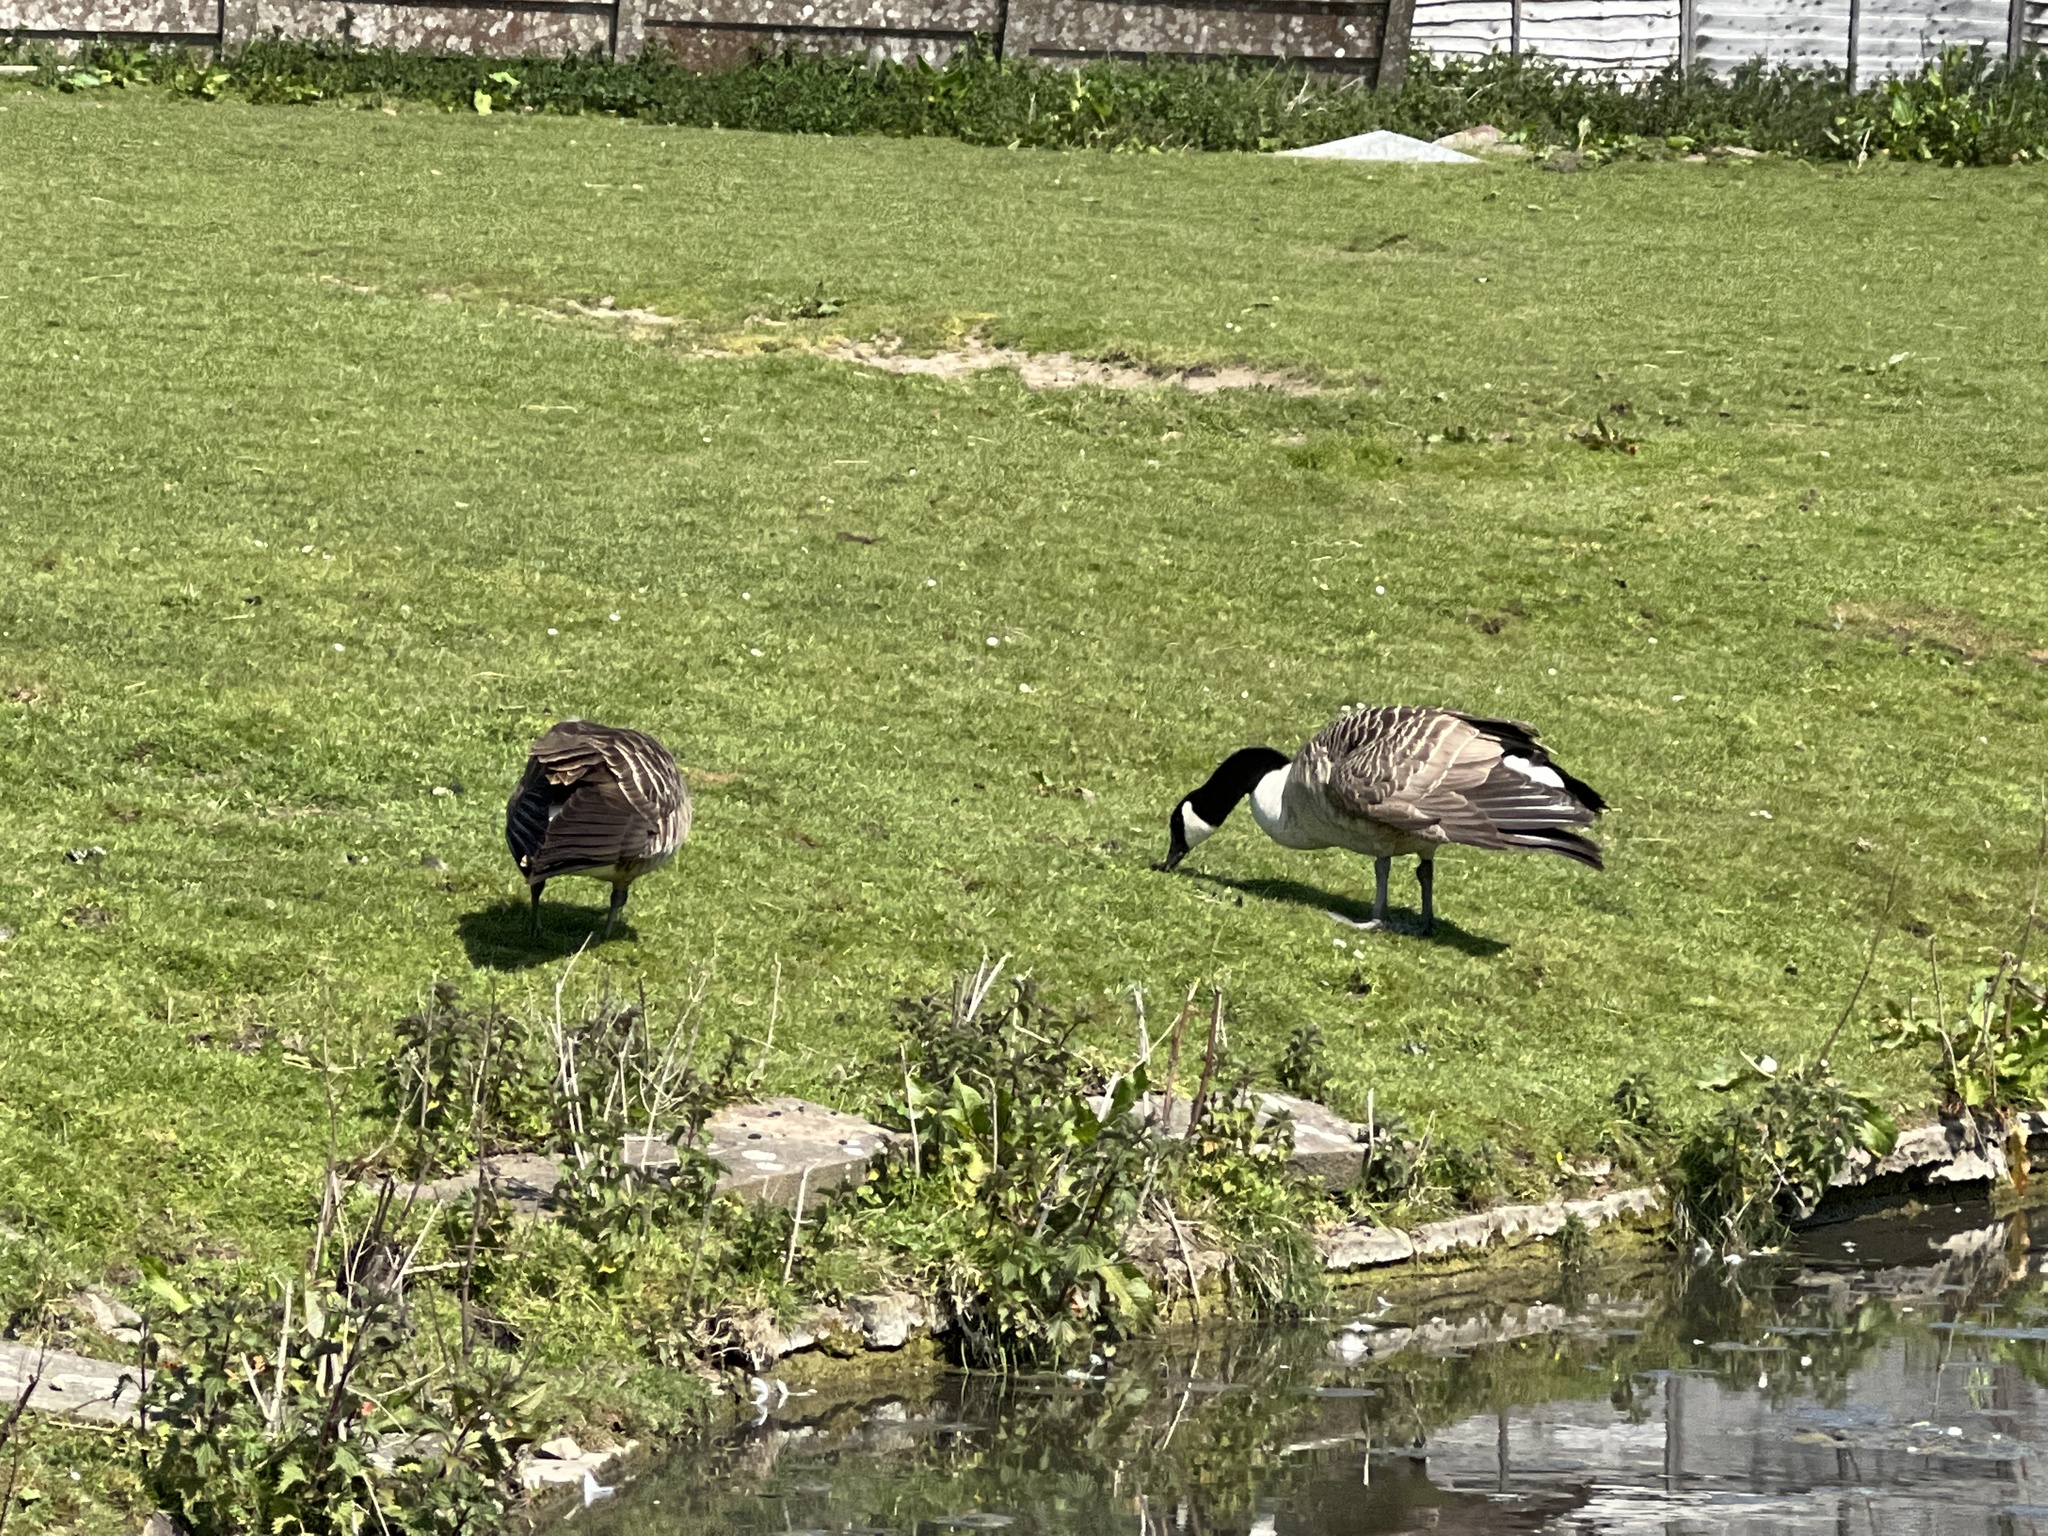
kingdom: Animalia
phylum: Chordata
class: Aves
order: Anseriformes
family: Anatidae
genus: Branta
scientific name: Branta canadensis
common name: Canada goose
